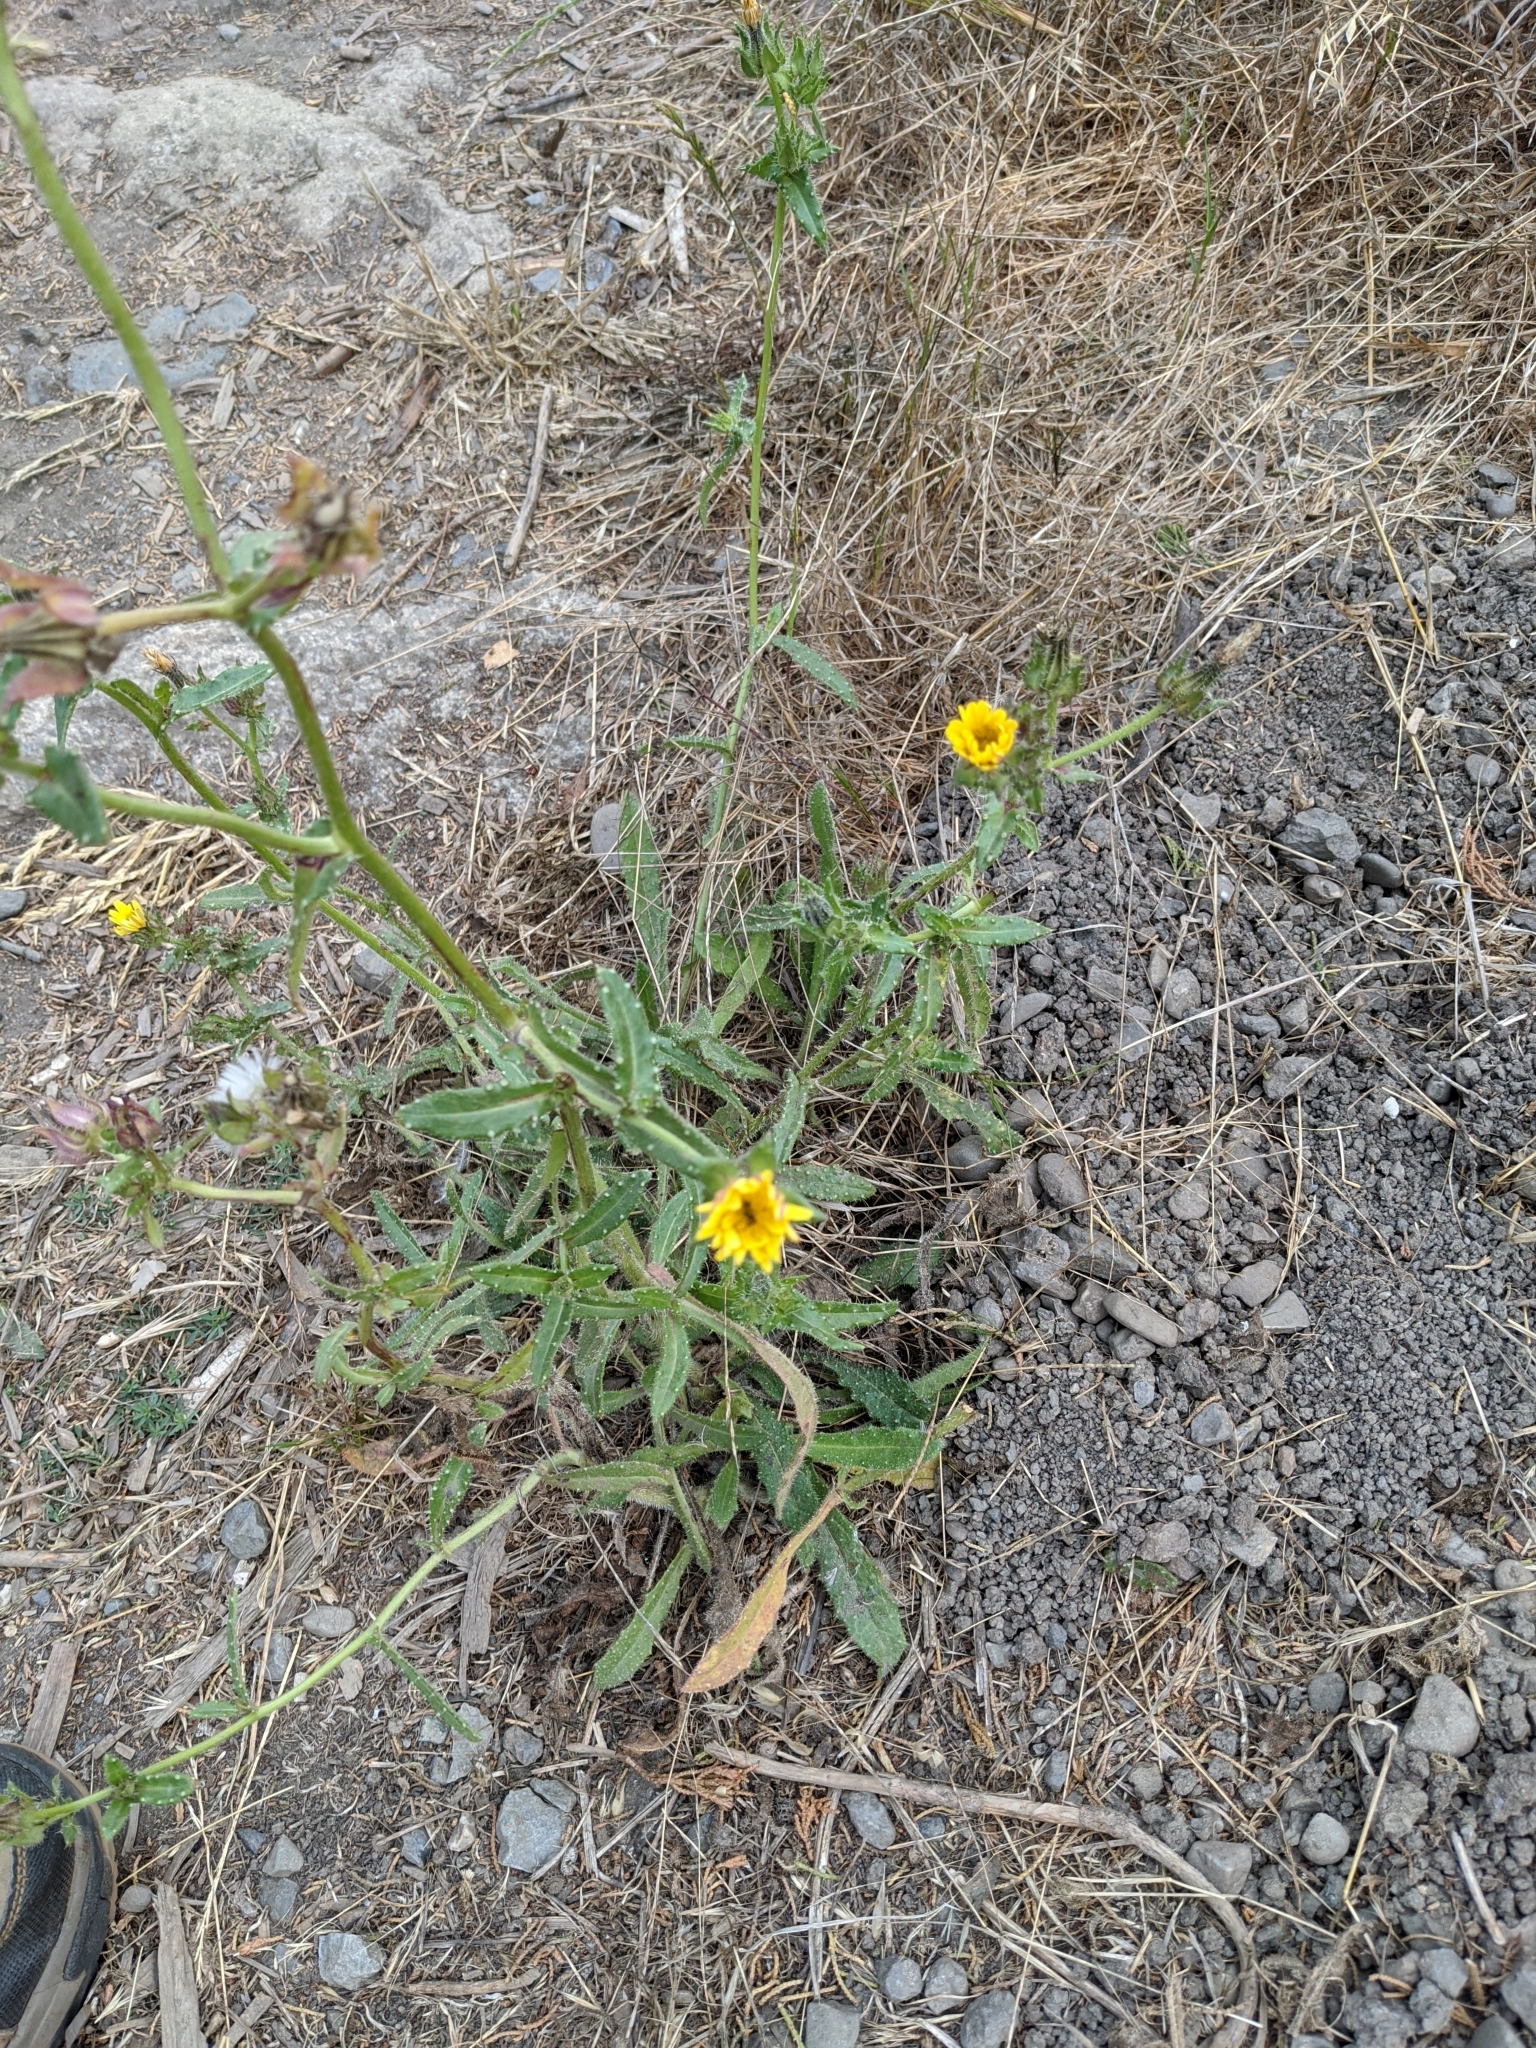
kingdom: Plantae
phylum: Tracheophyta
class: Magnoliopsida
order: Asterales
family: Asteraceae
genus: Helminthotheca
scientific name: Helminthotheca echioides
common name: Ox-tongue
